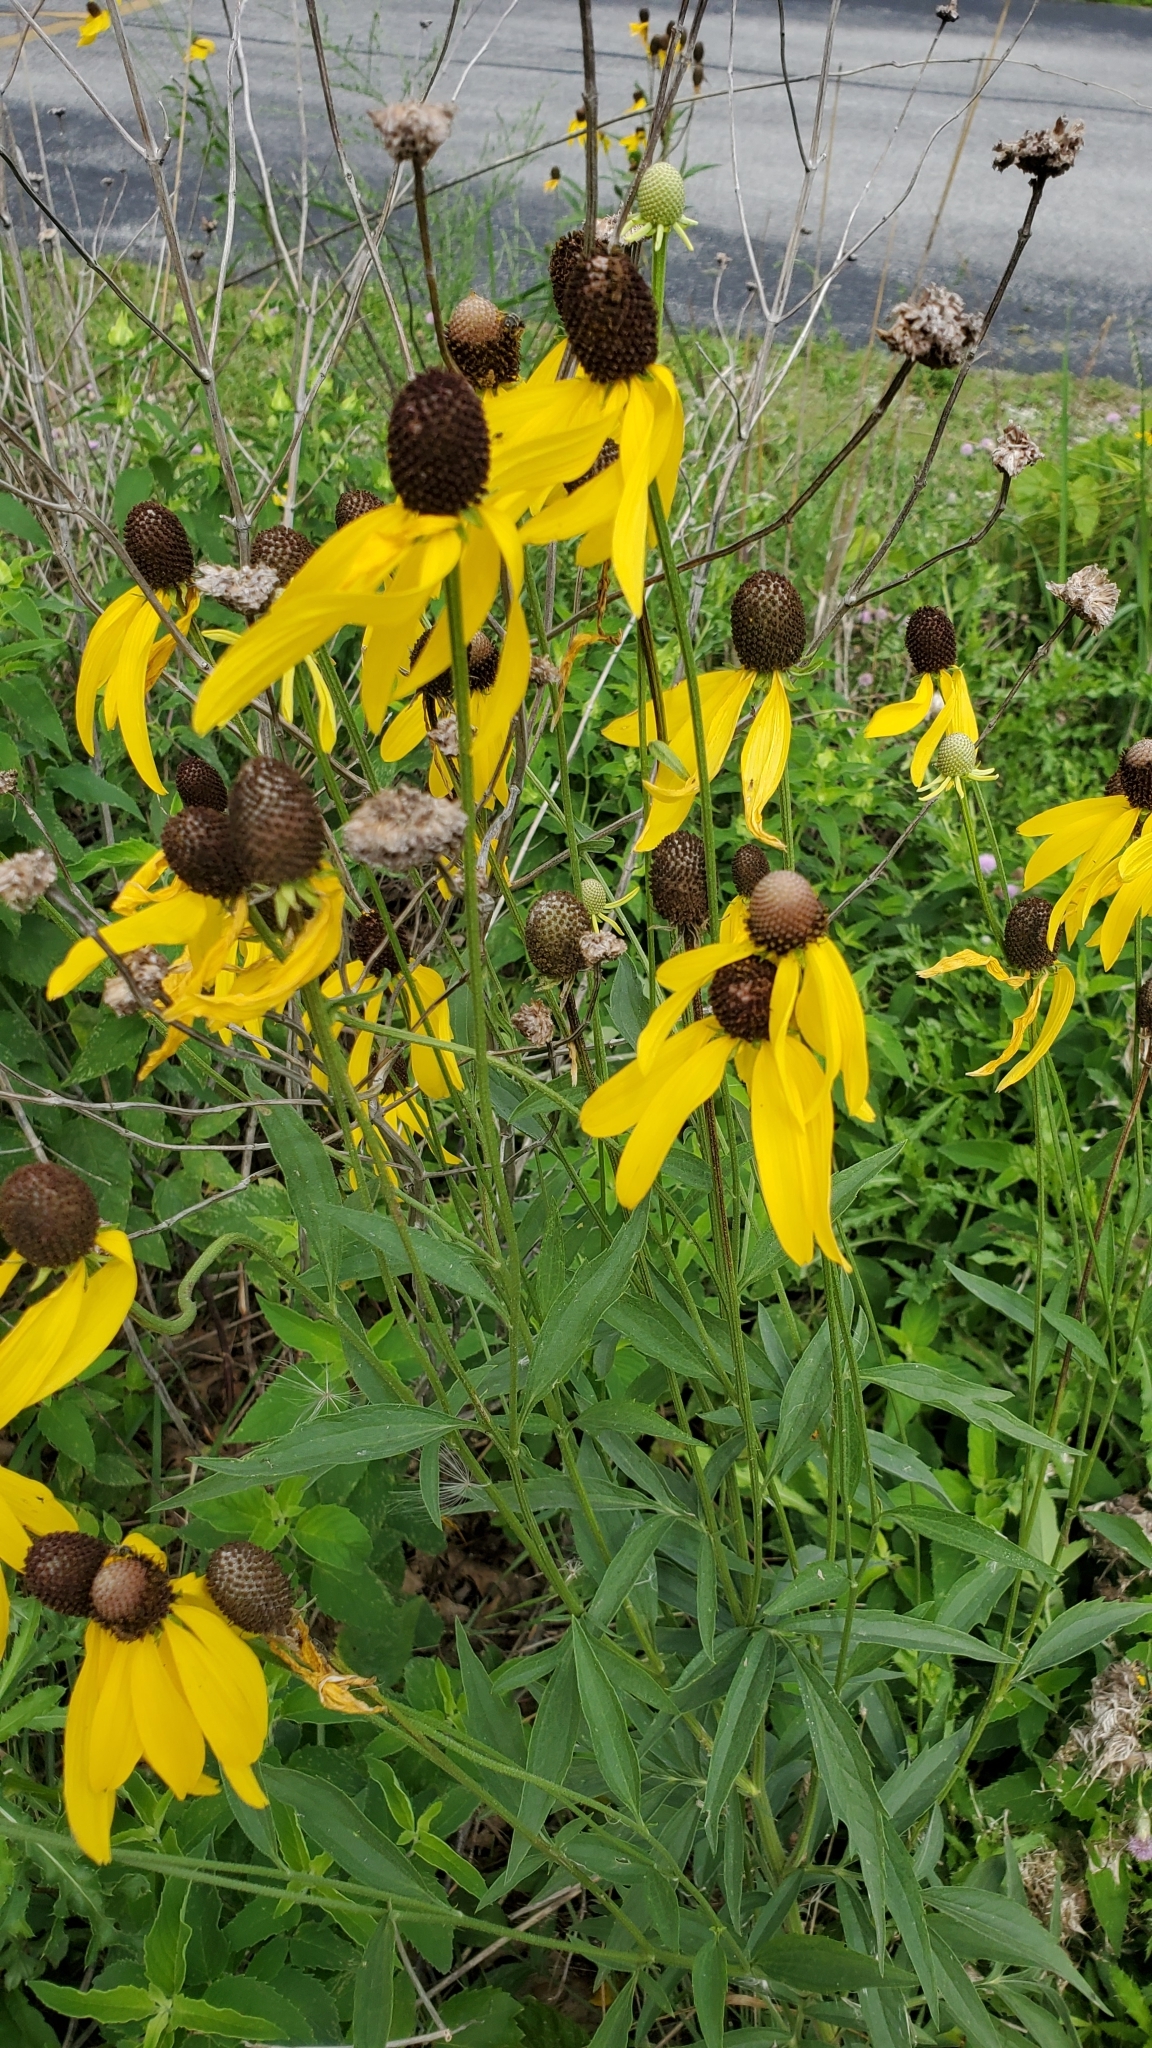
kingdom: Plantae
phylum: Tracheophyta
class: Magnoliopsida
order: Asterales
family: Asteraceae
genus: Ratibida
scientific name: Ratibida pinnata
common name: Drooping prairie-coneflower
